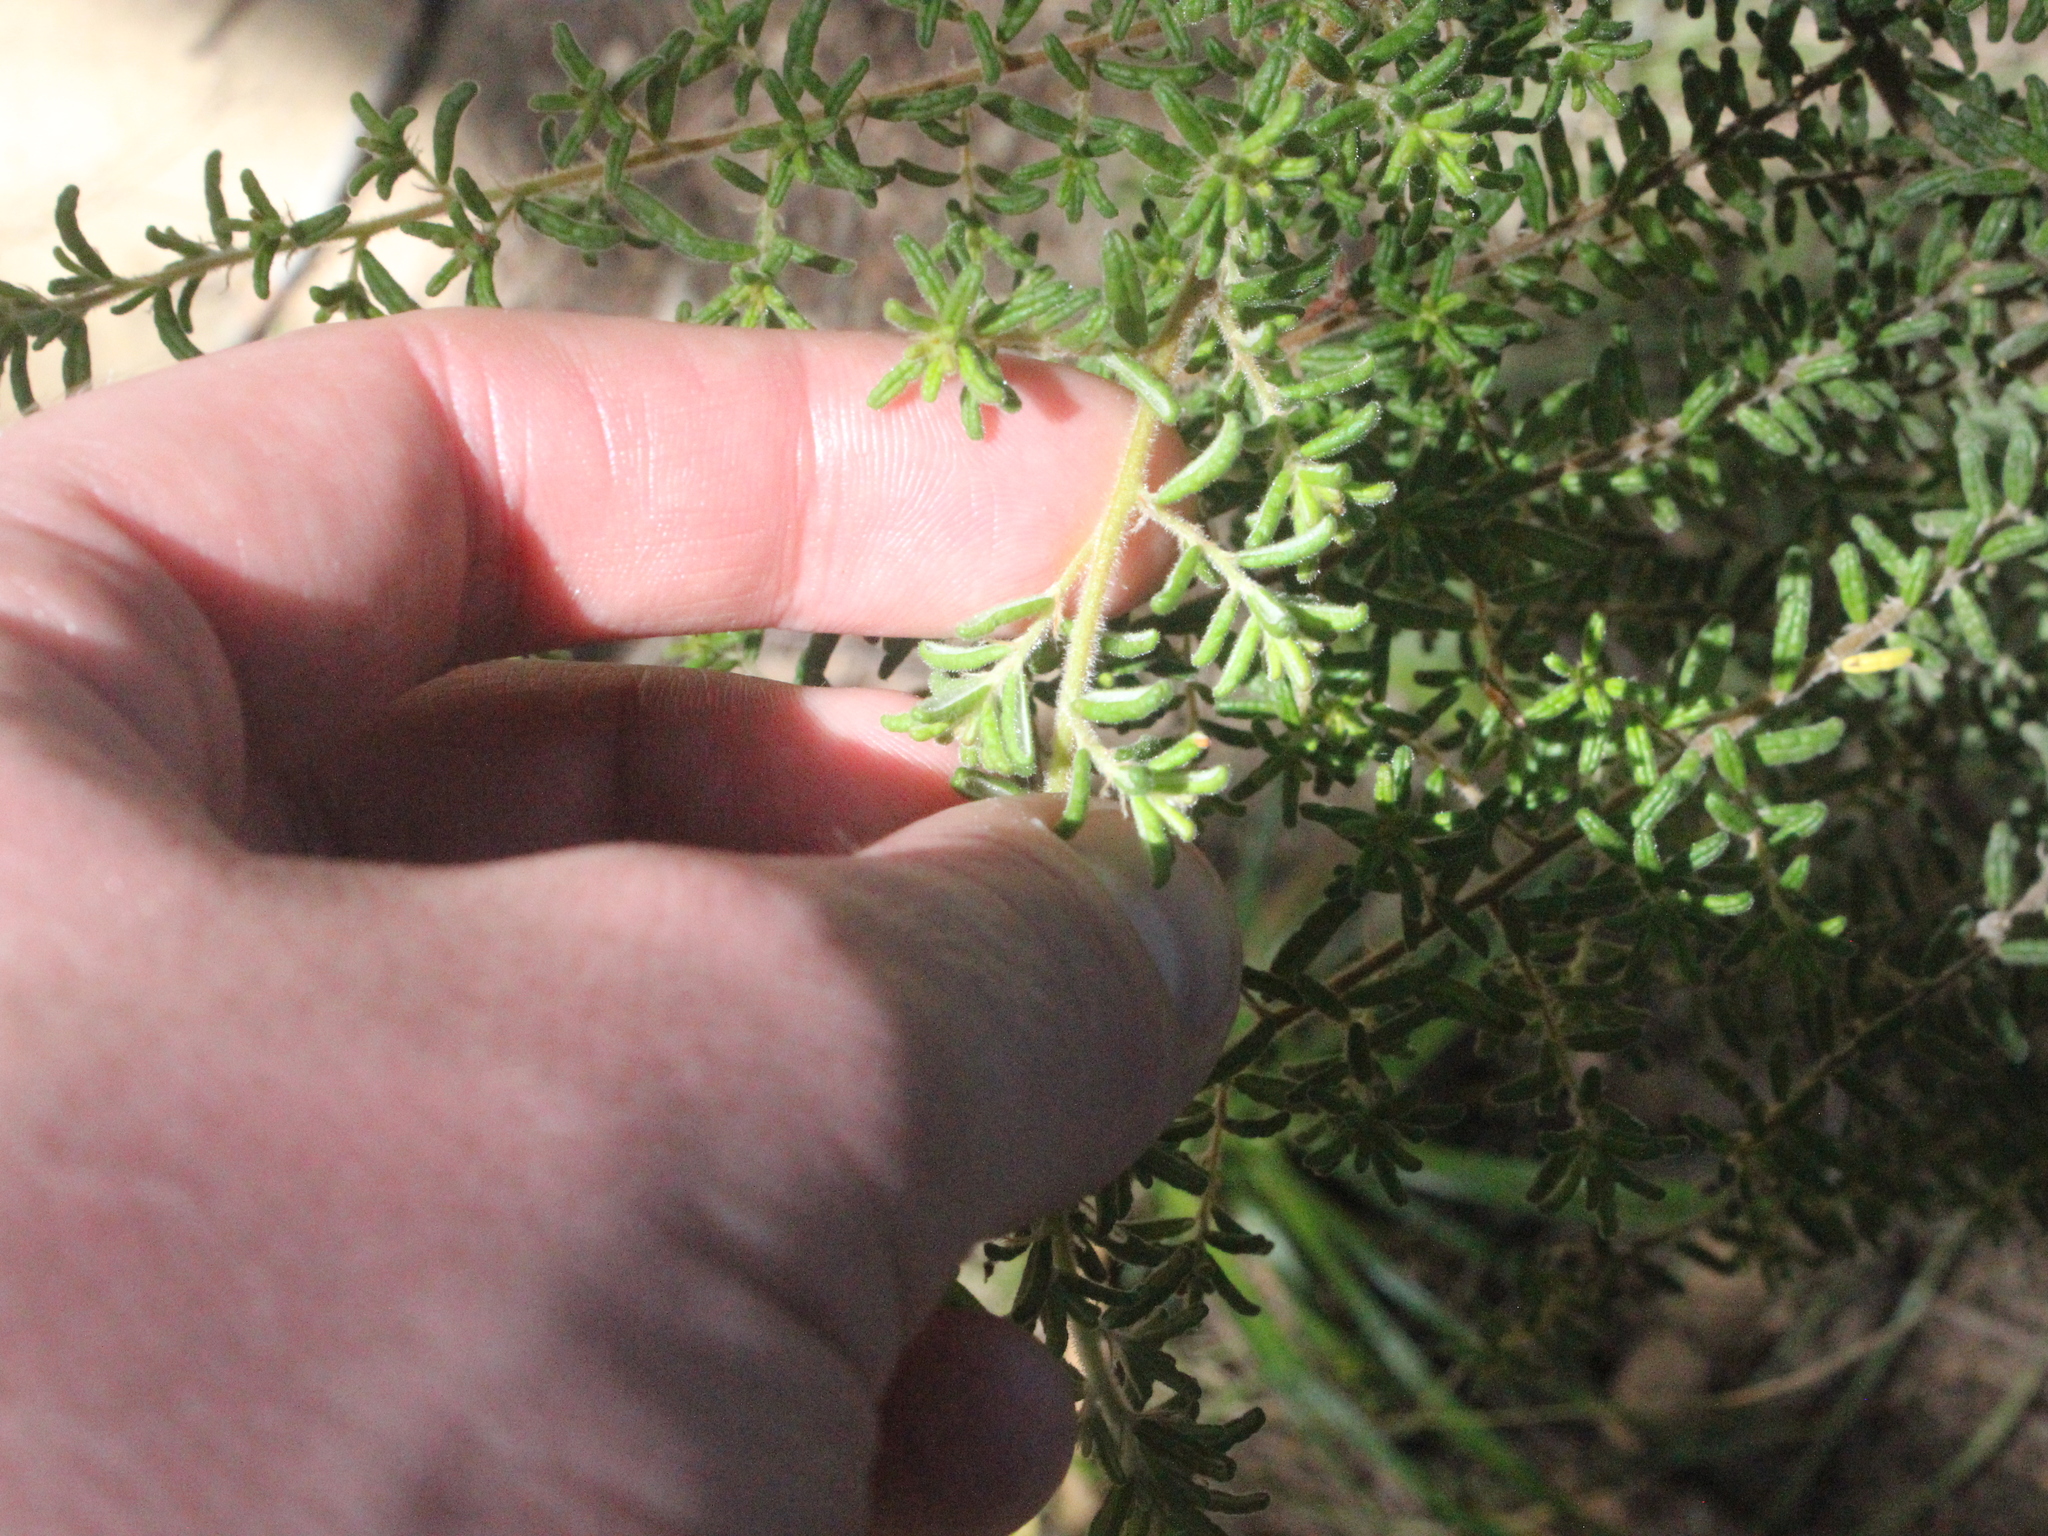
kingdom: Plantae
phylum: Tracheophyta
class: Magnoliopsida
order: Rosales
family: Rhamnaceae
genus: Pomaderris
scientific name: Pomaderris amoena
